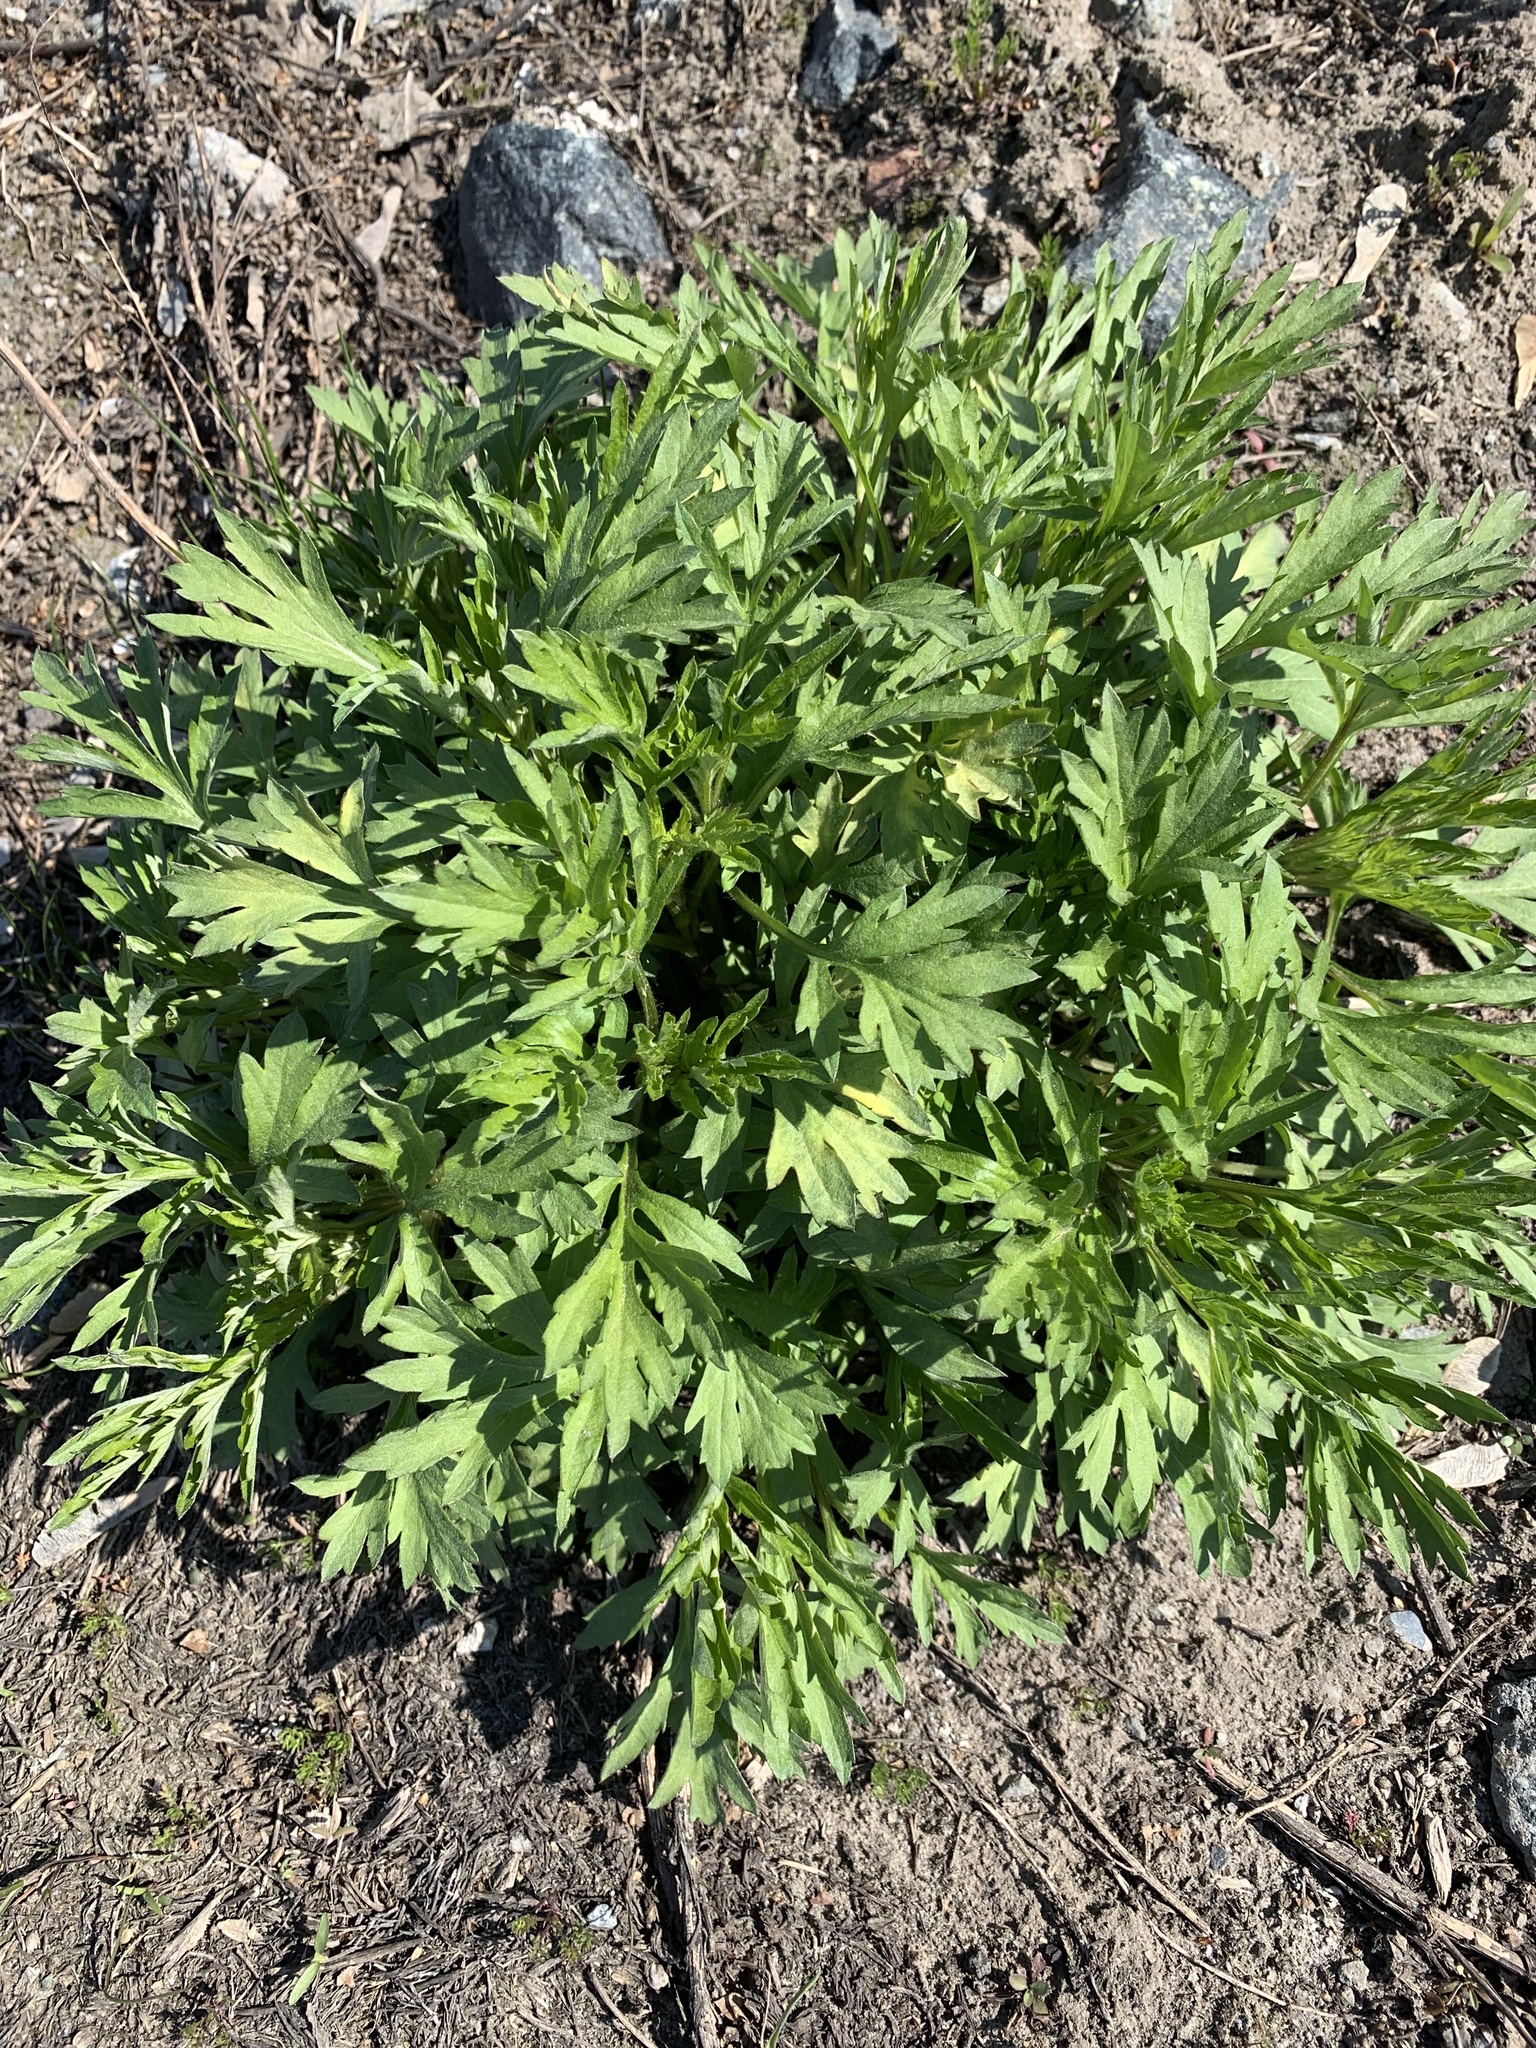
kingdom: Plantae
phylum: Tracheophyta
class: Magnoliopsida
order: Asterales
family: Asteraceae
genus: Artemisia
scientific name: Artemisia vulgaris
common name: Mugwort
